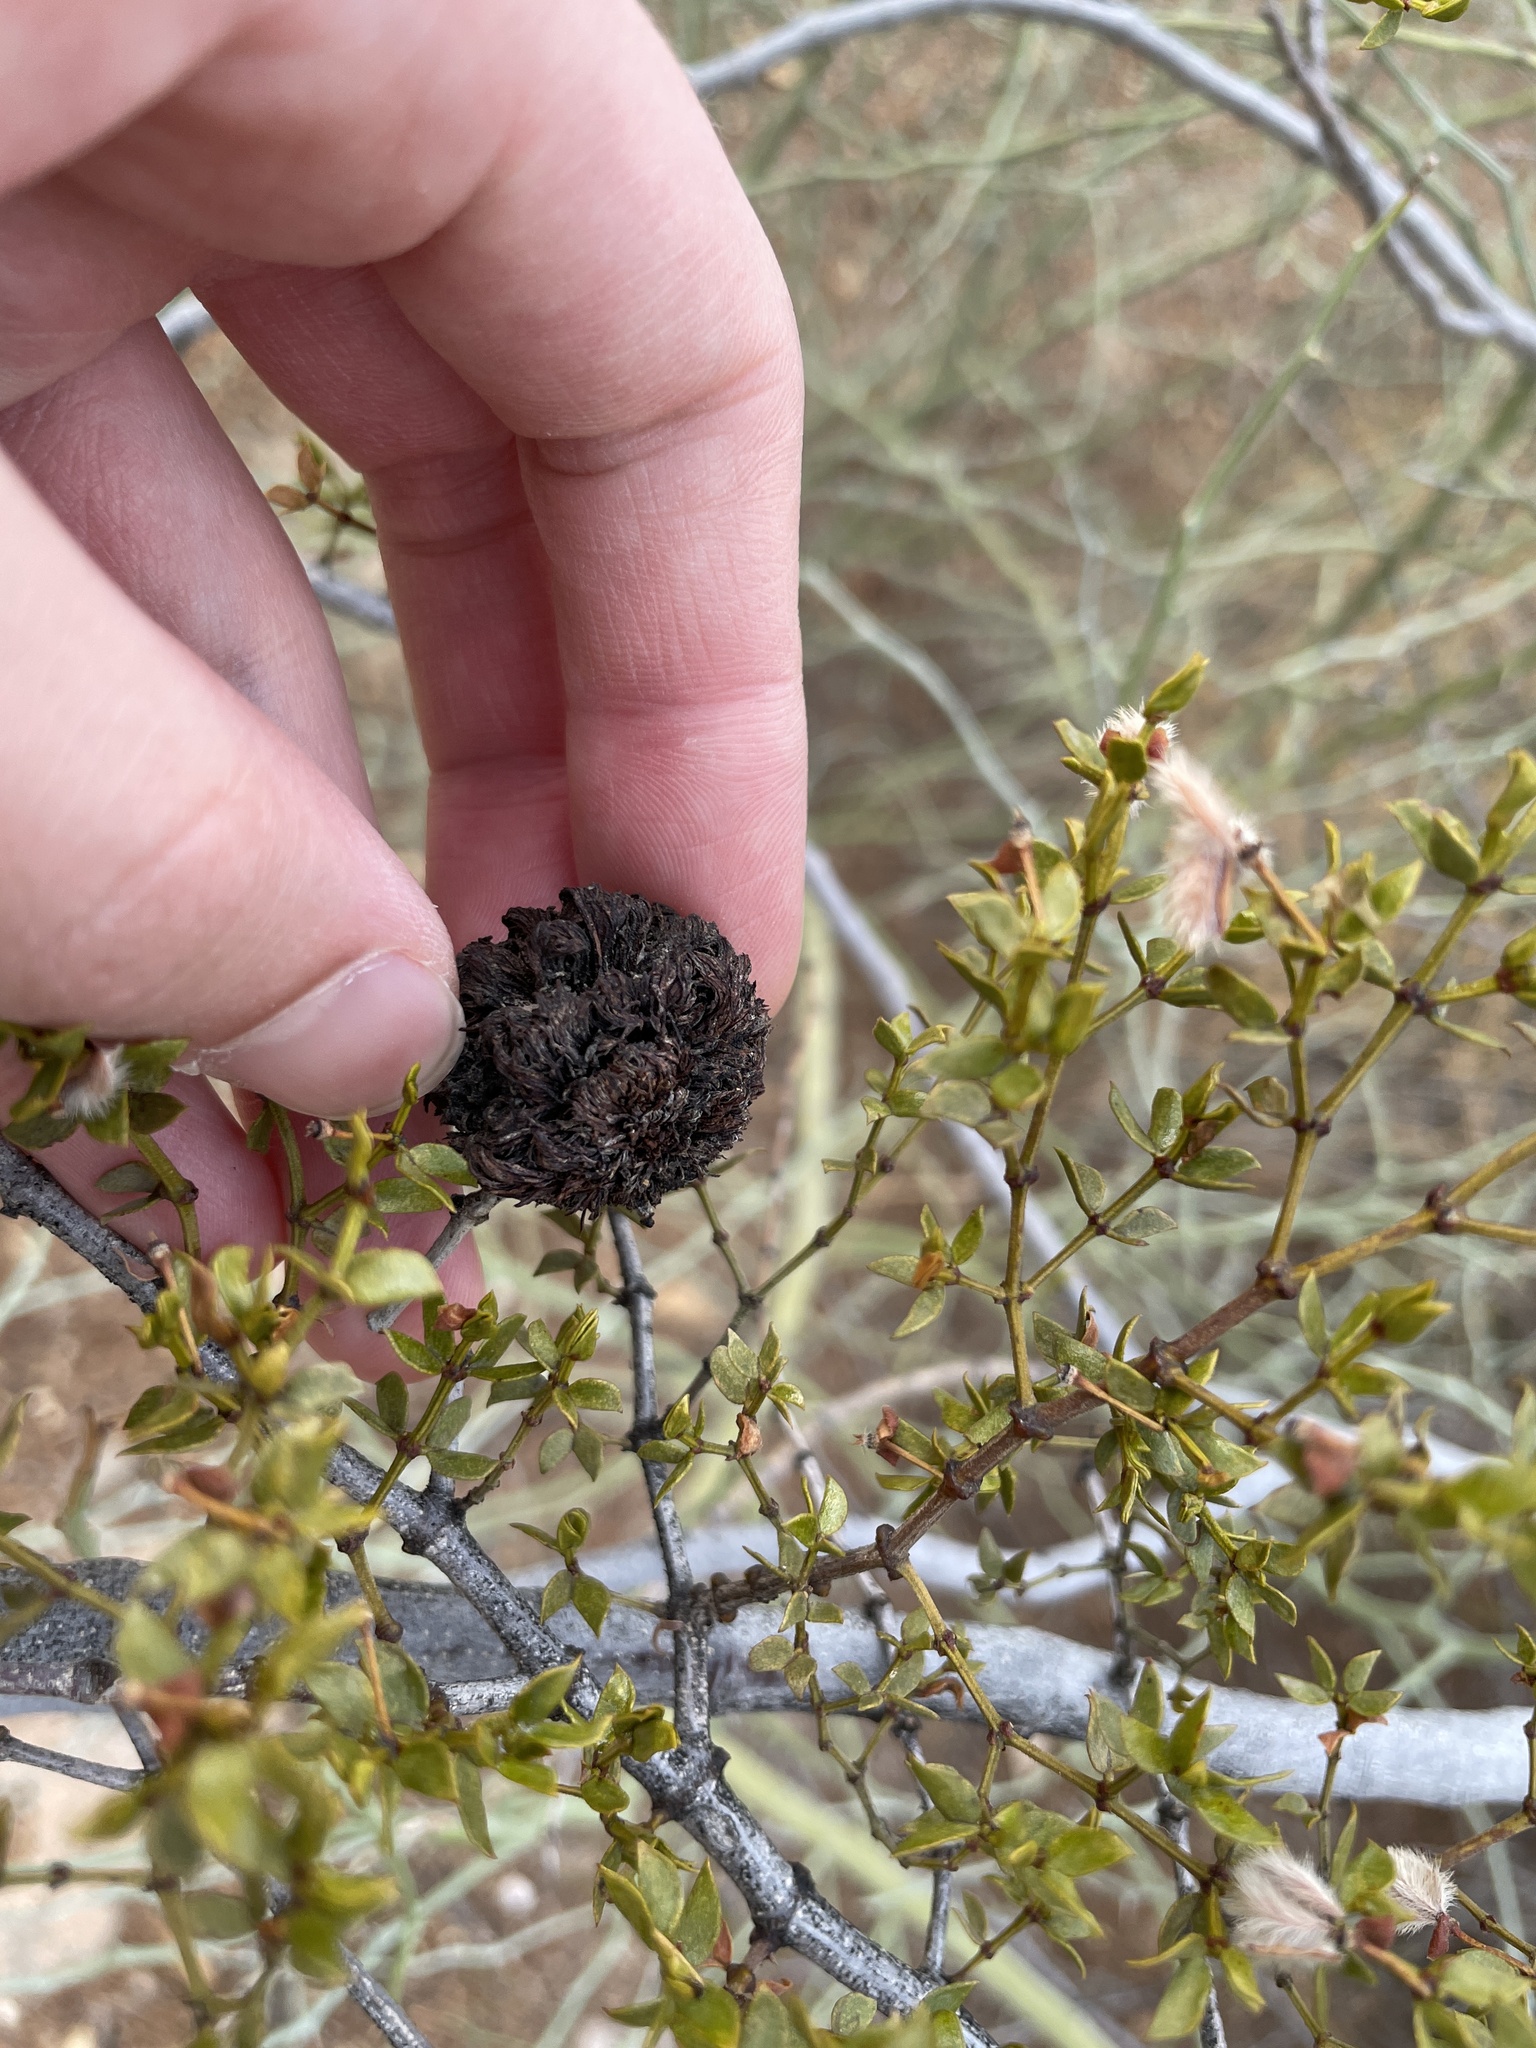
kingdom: Animalia
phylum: Arthropoda
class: Insecta
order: Diptera
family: Cecidomyiidae
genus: Asphondylia
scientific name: Asphondylia auripila
